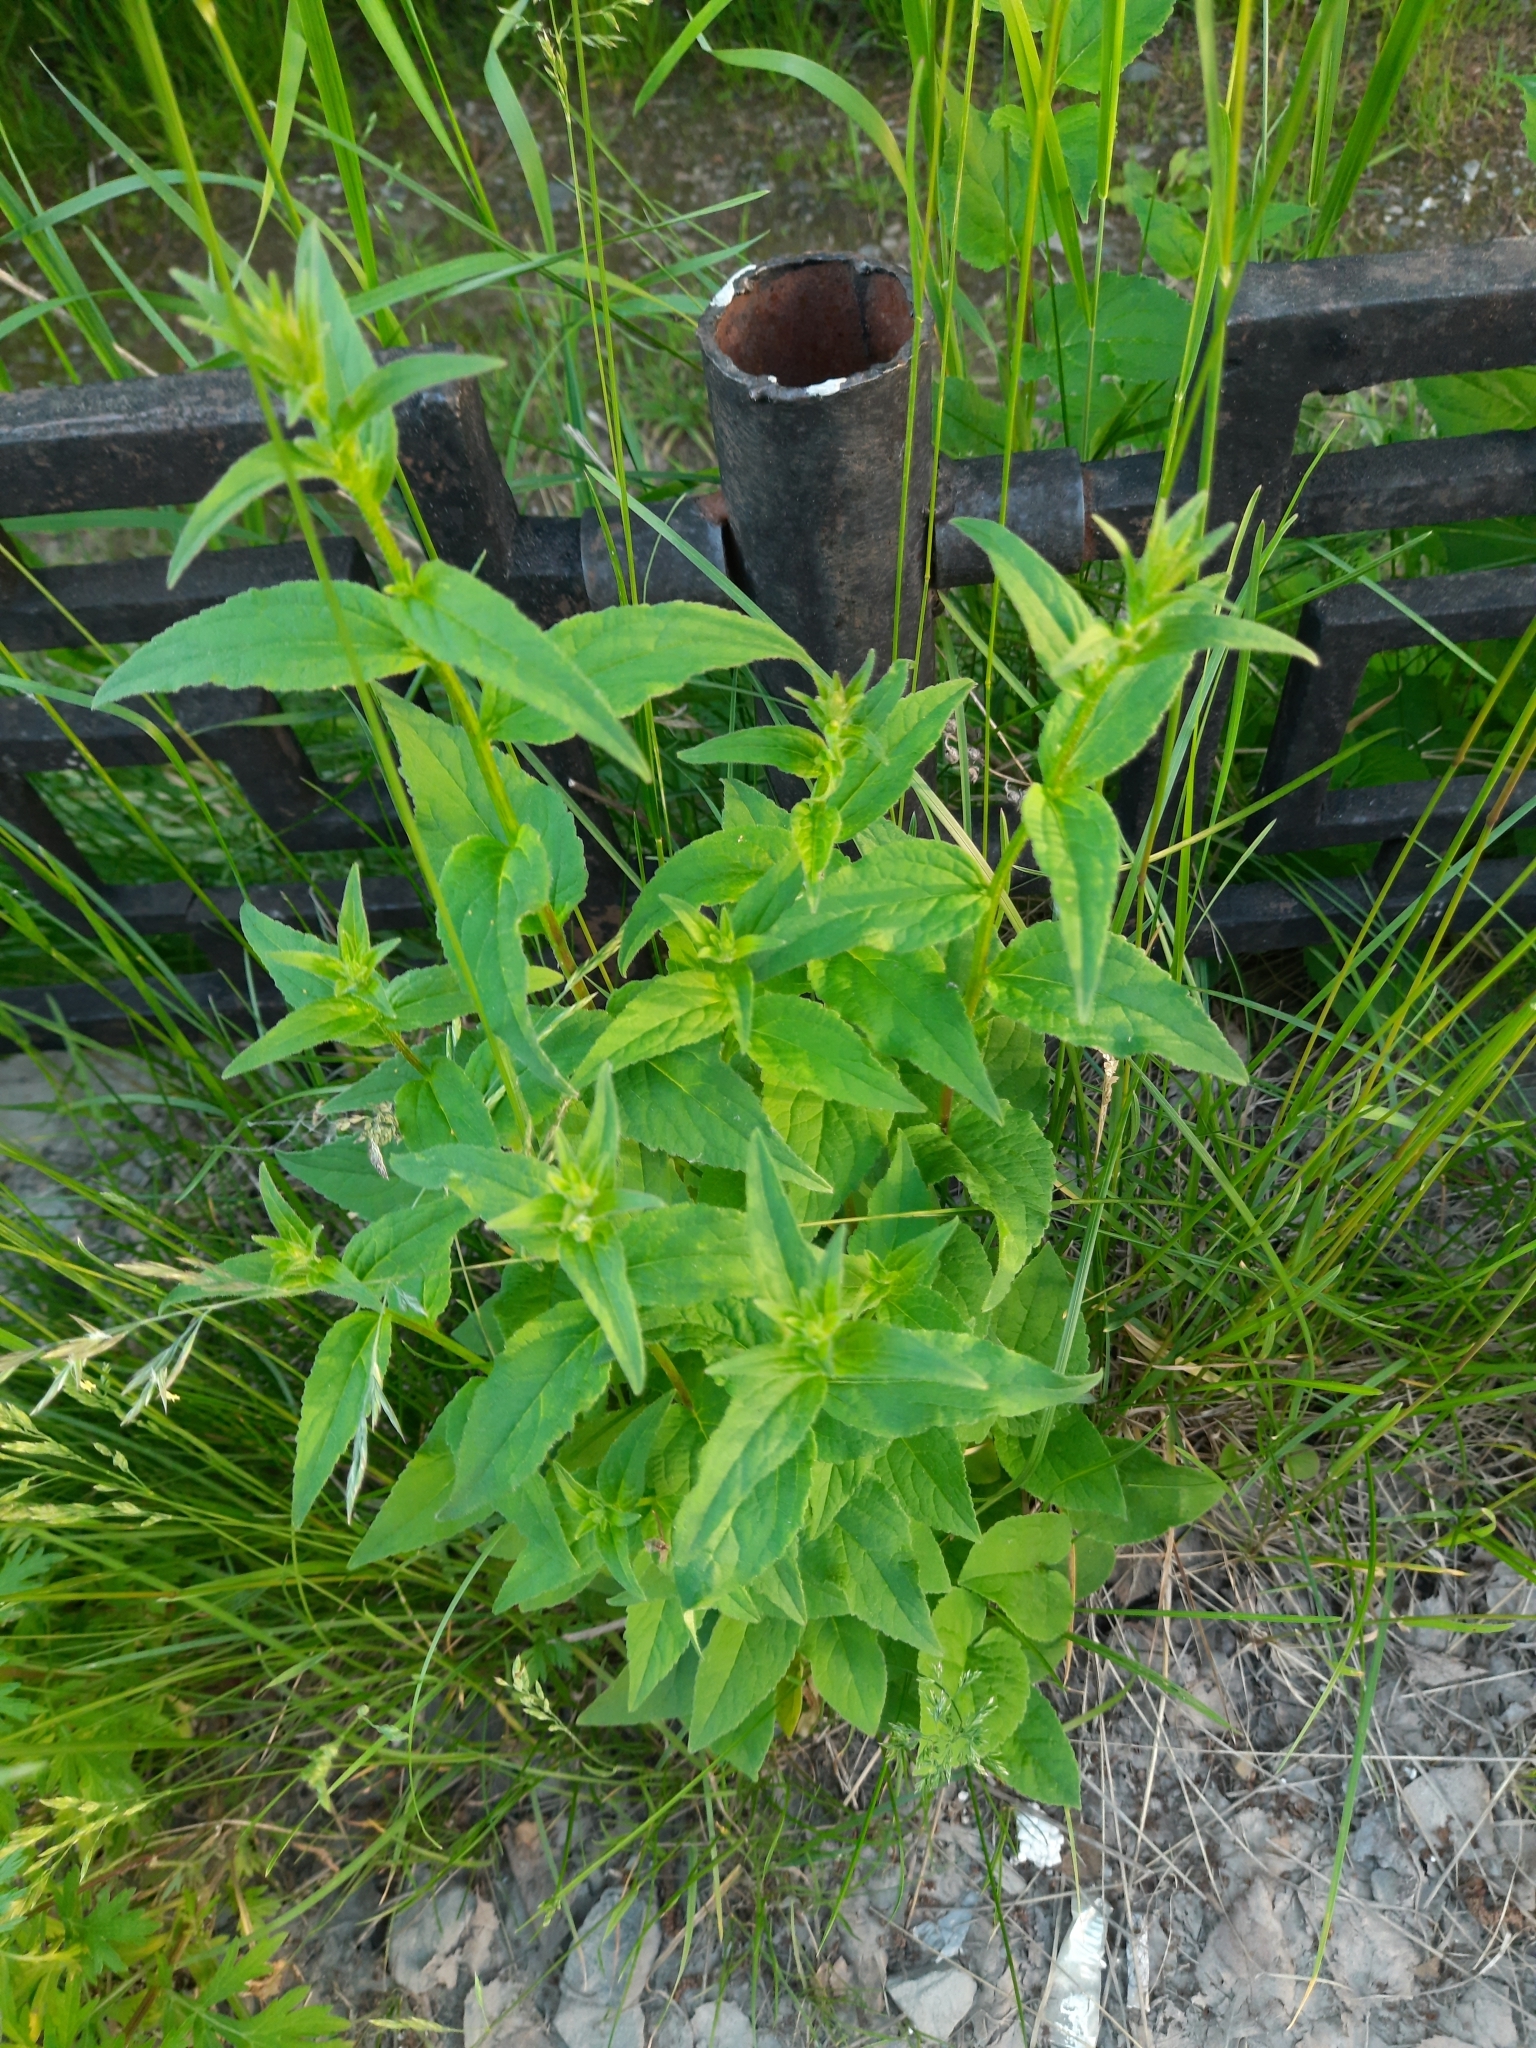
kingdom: Plantae
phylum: Tracheophyta
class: Magnoliopsida
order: Asterales
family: Campanulaceae
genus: Campanula
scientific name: Campanula rapunculoides
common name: Creeping bellflower
